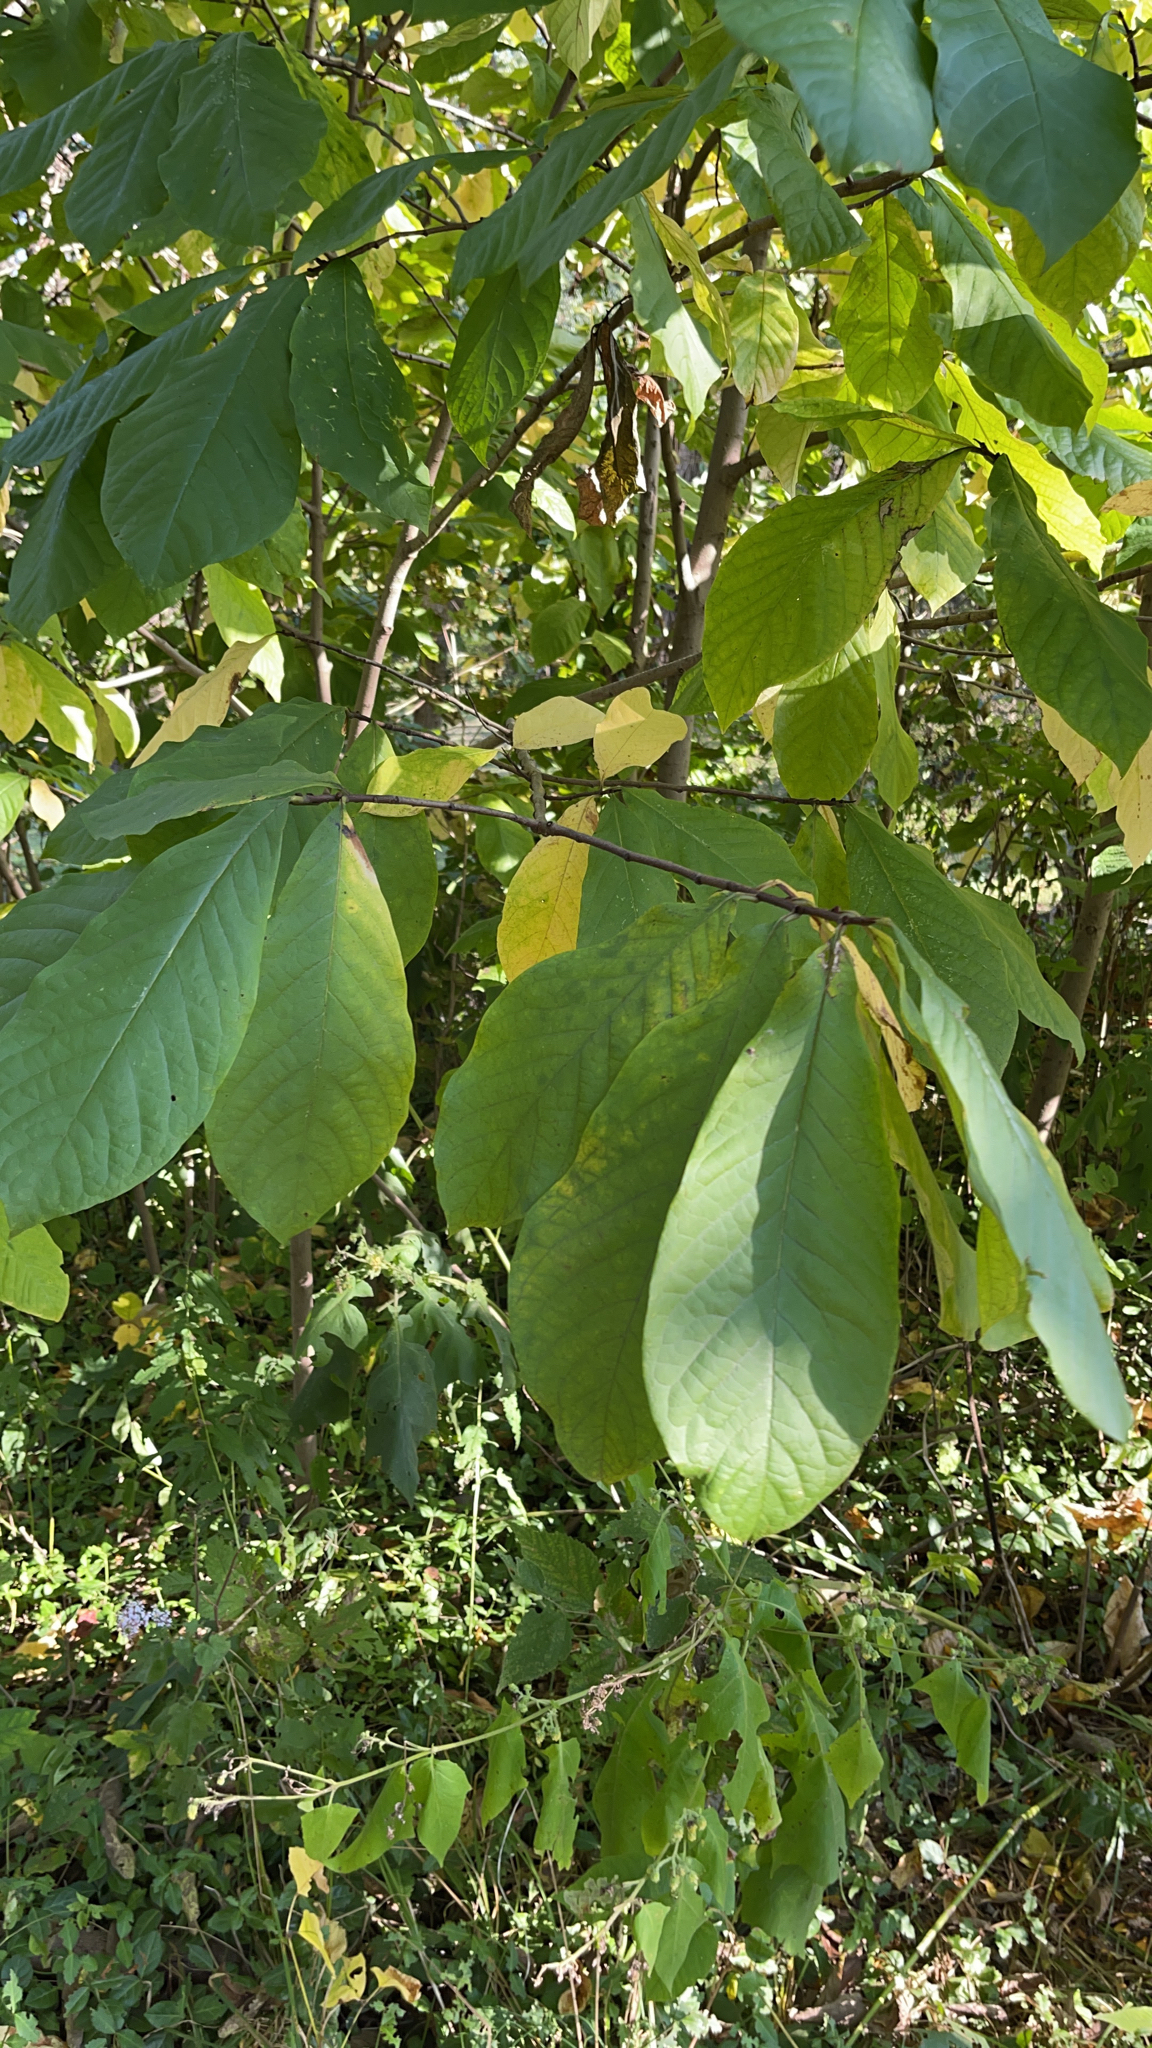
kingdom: Plantae
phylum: Tracheophyta
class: Magnoliopsida
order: Magnoliales
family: Annonaceae
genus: Asimina
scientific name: Asimina triloba
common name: Dog-banana
